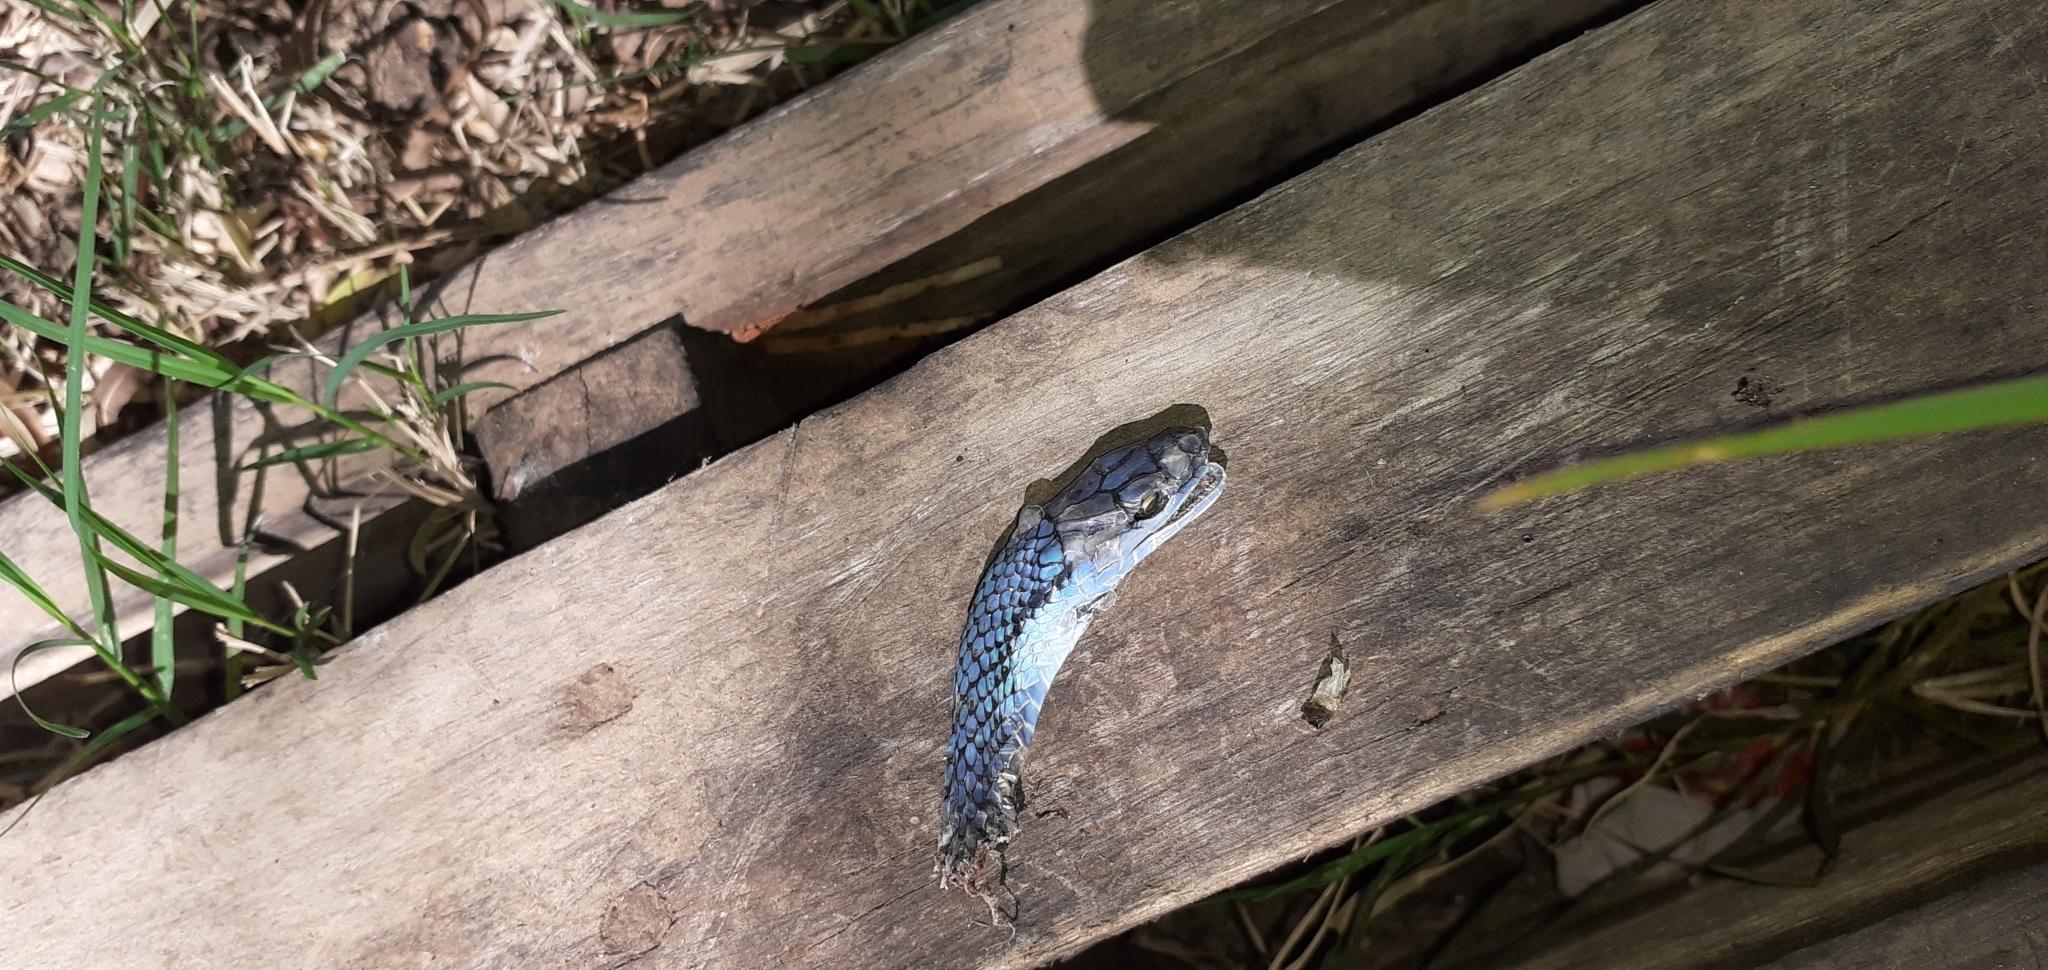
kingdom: Animalia
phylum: Chordata
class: Squamata
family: Colubridae
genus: Leptophis
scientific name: Leptophis ahaetulla
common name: Parrot snake
